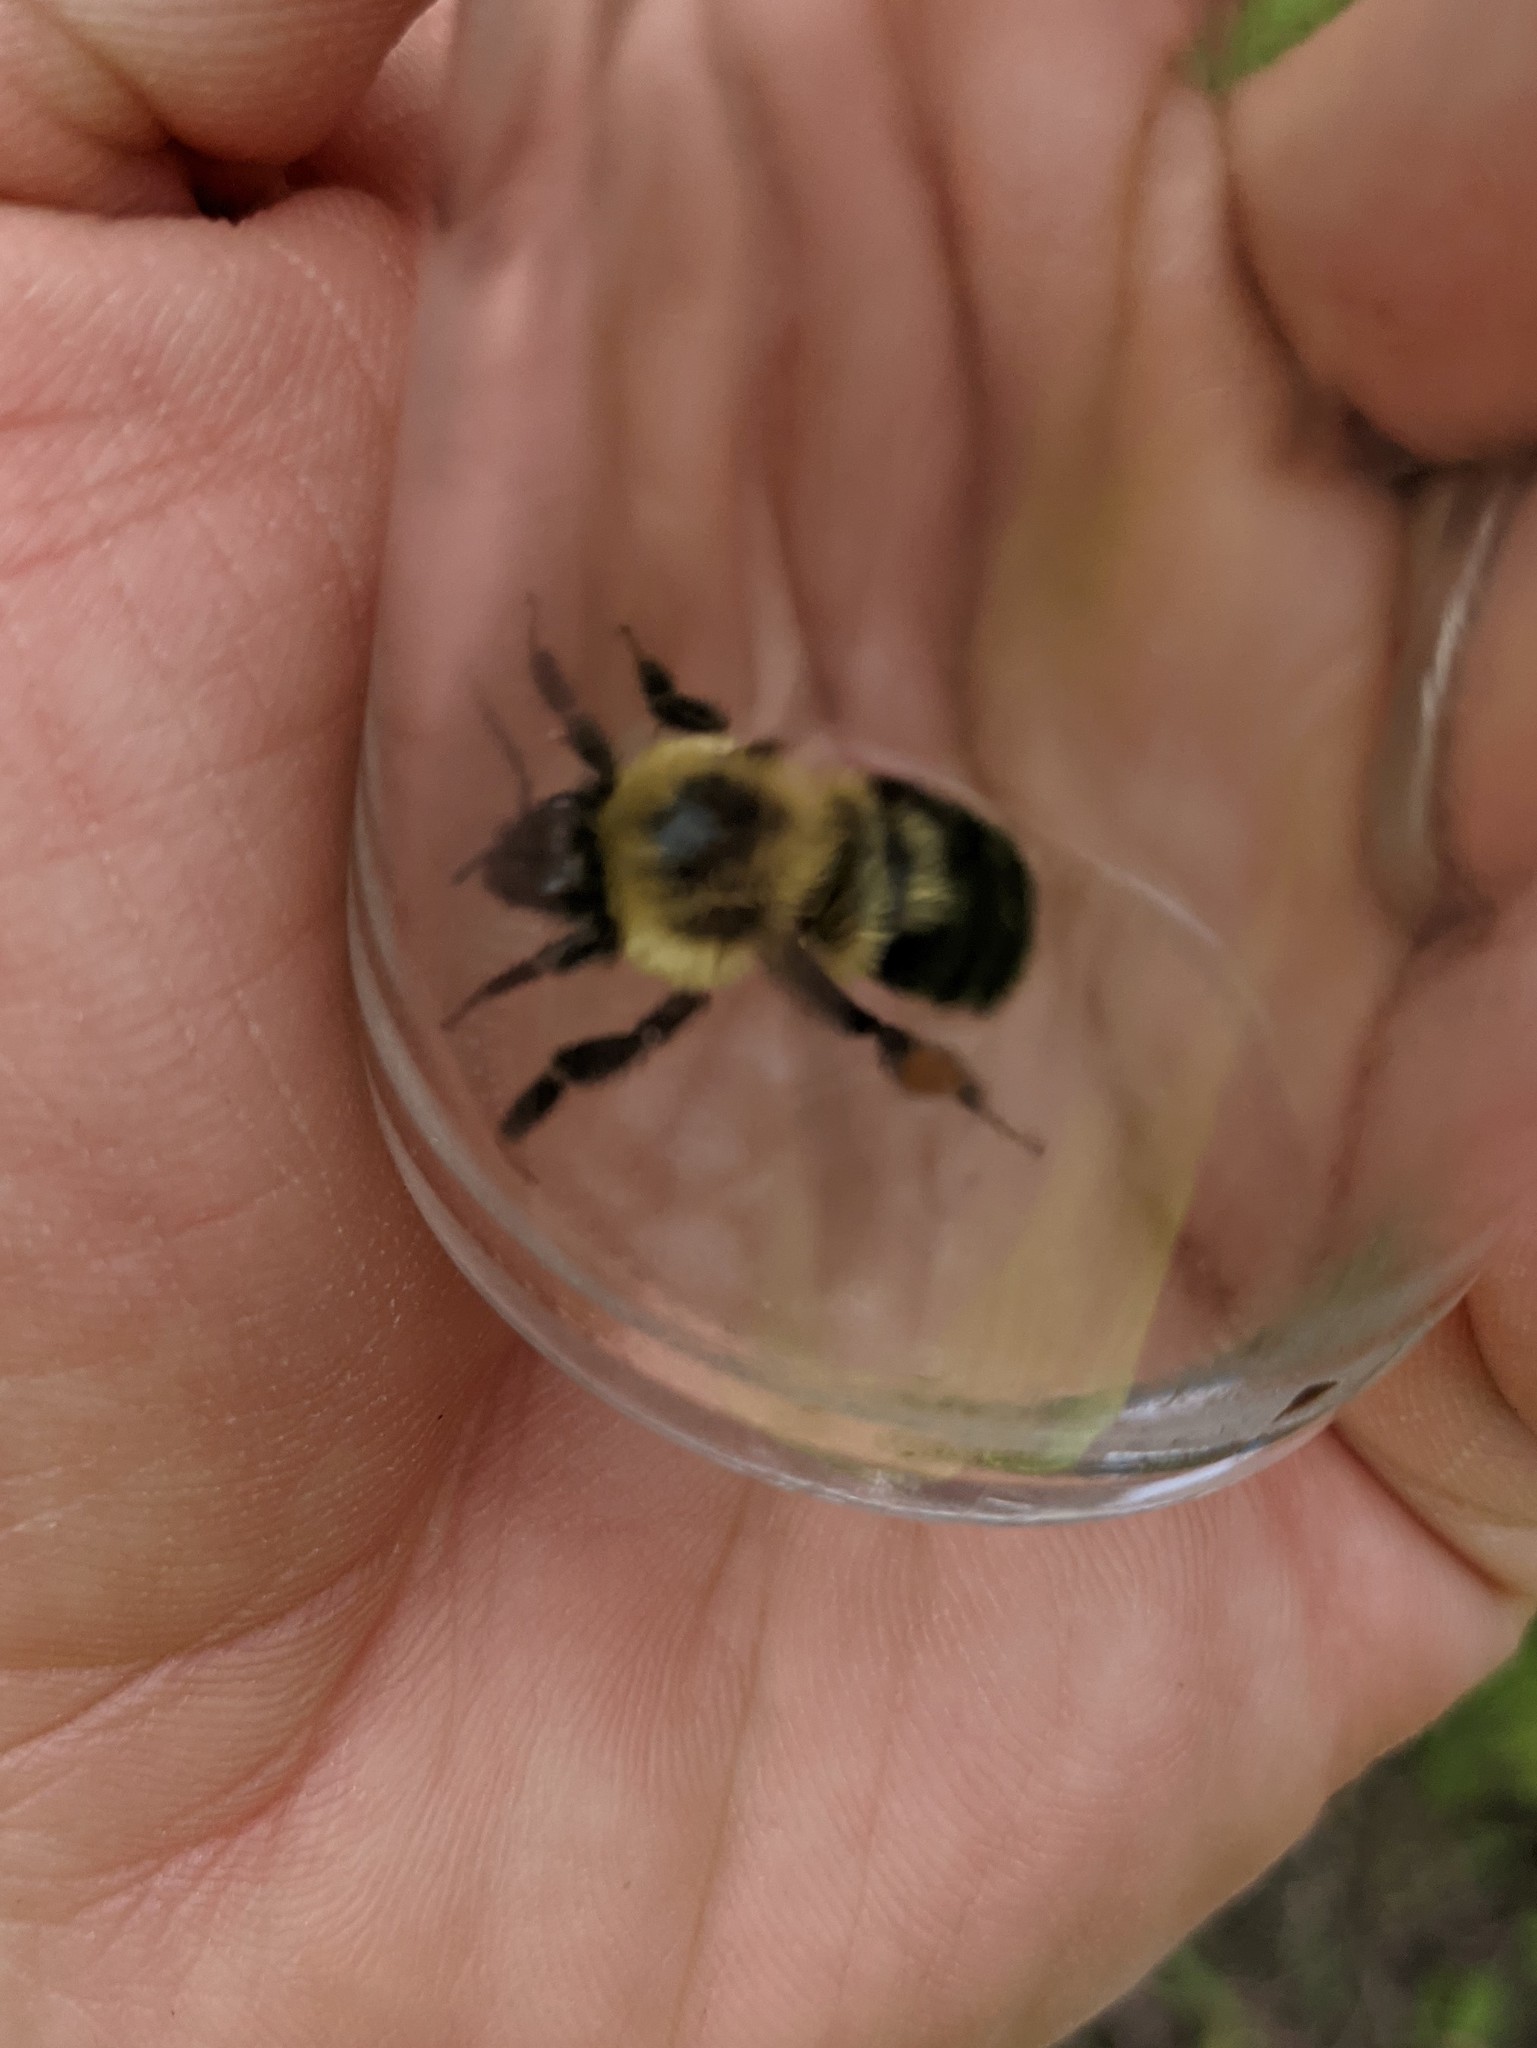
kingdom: Animalia
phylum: Arthropoda
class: Insecta
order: Hymenoptera
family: Apidae
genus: Bombus
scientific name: Bombus bimaculatus
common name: Two-spotted bumble bee
